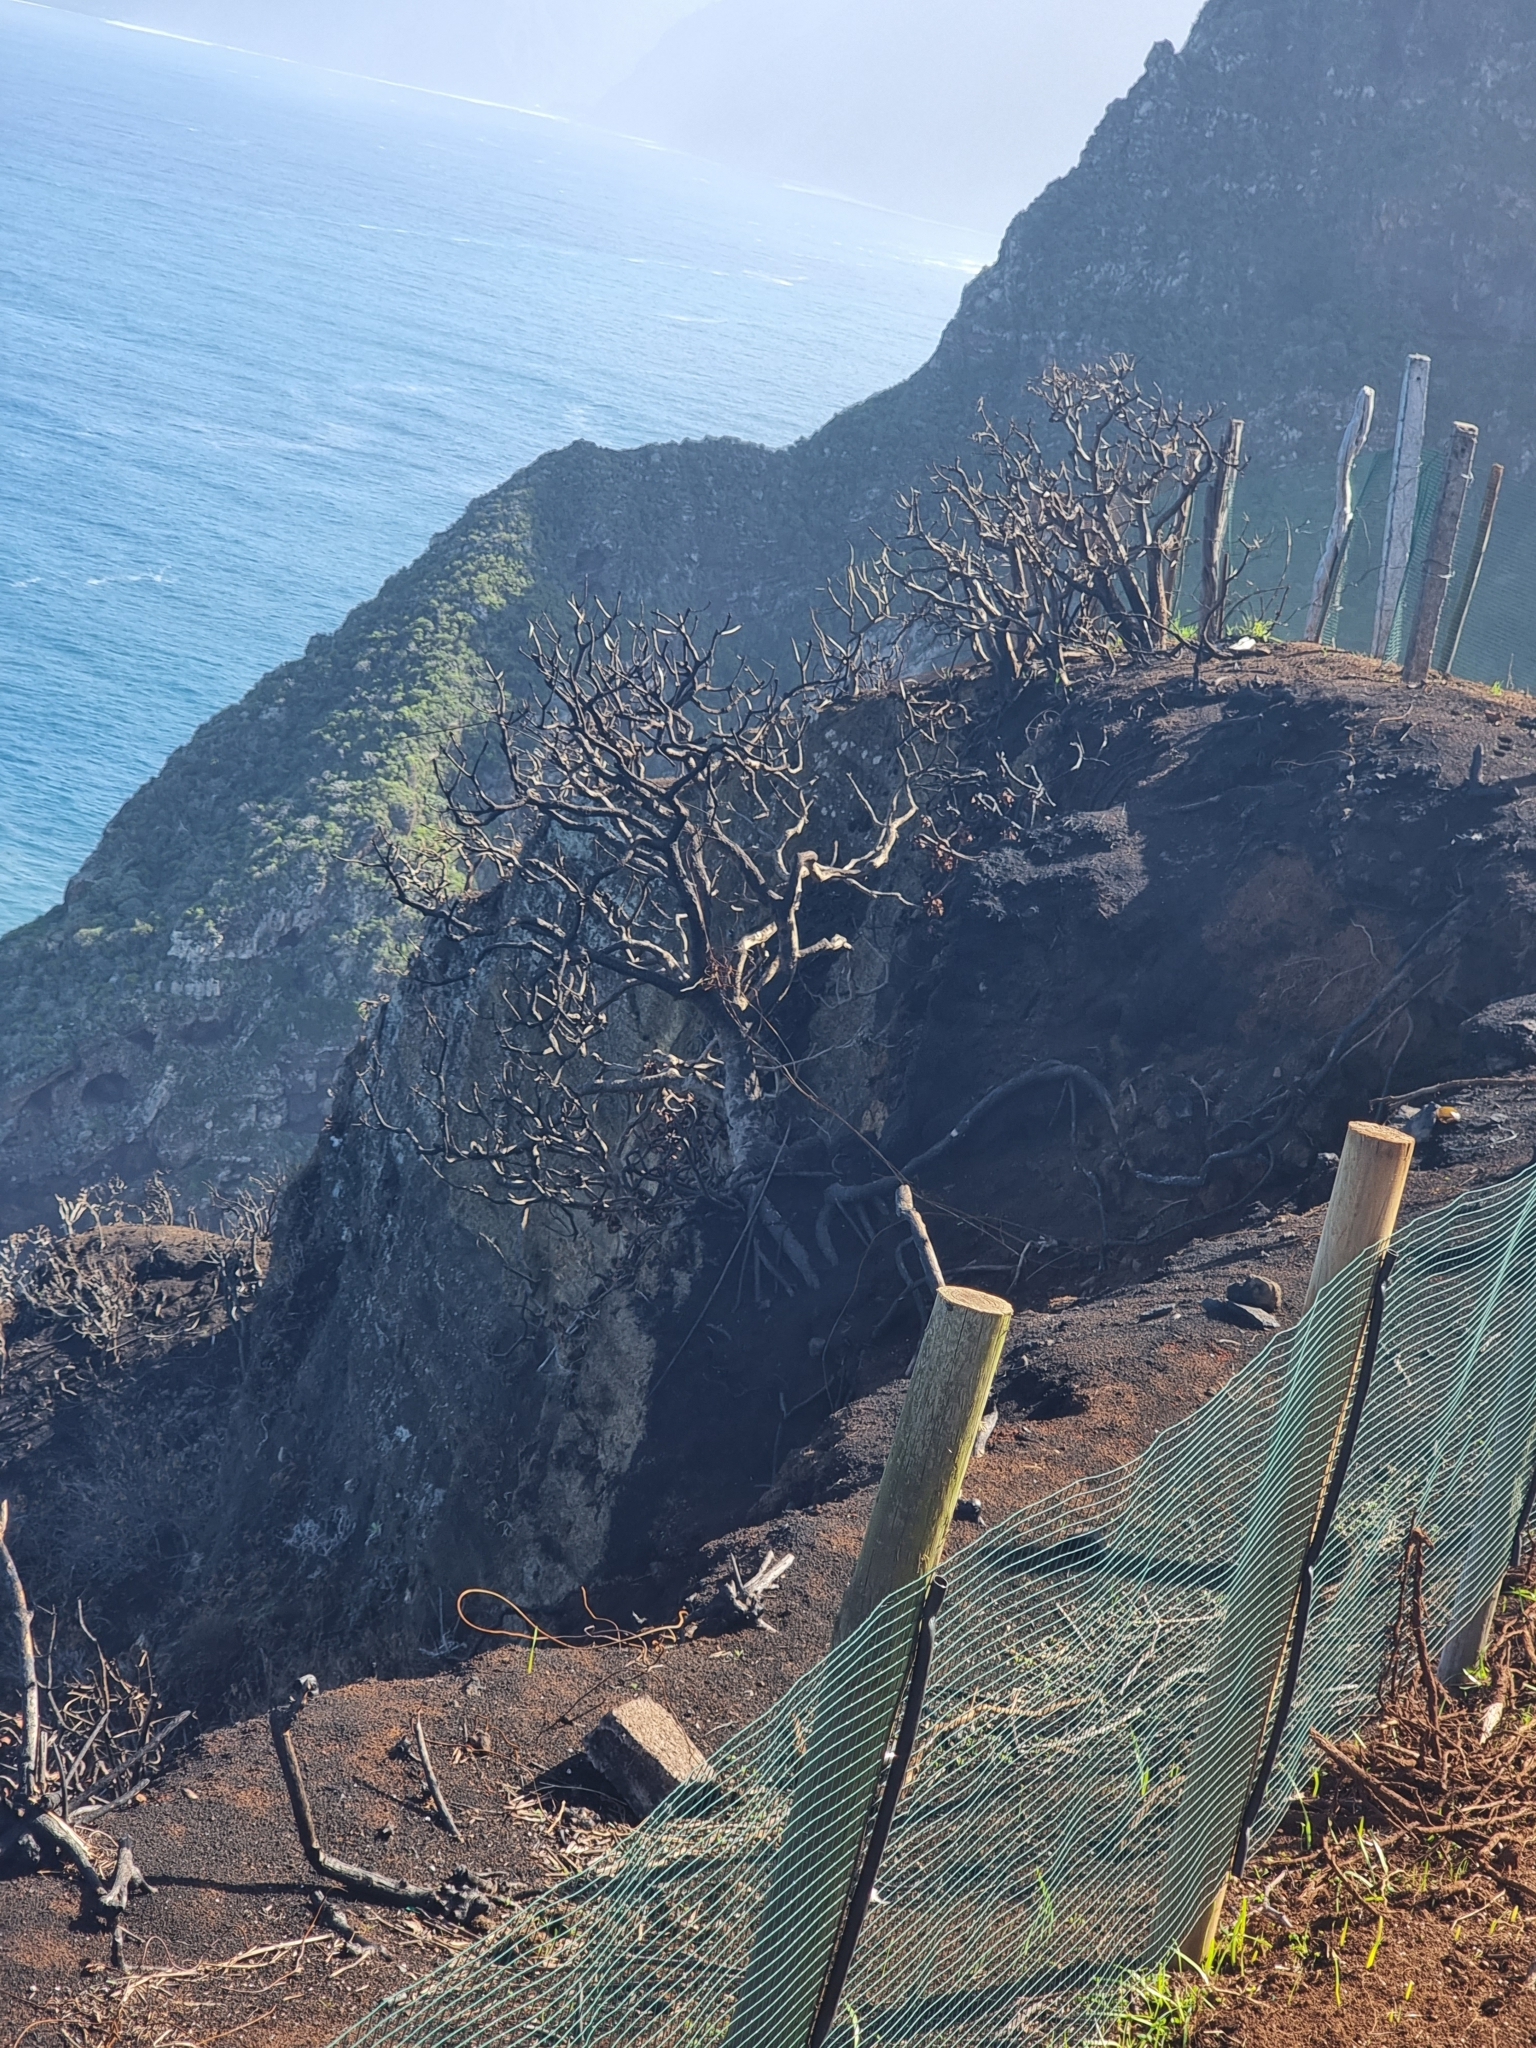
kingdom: Plantae
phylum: Tracheophyta
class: Magnoliopsida
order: Malpighiales
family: Euphorbiaceae
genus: Euphorbia
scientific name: Euphorbia piscatoria
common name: Fish-stunning spurge
